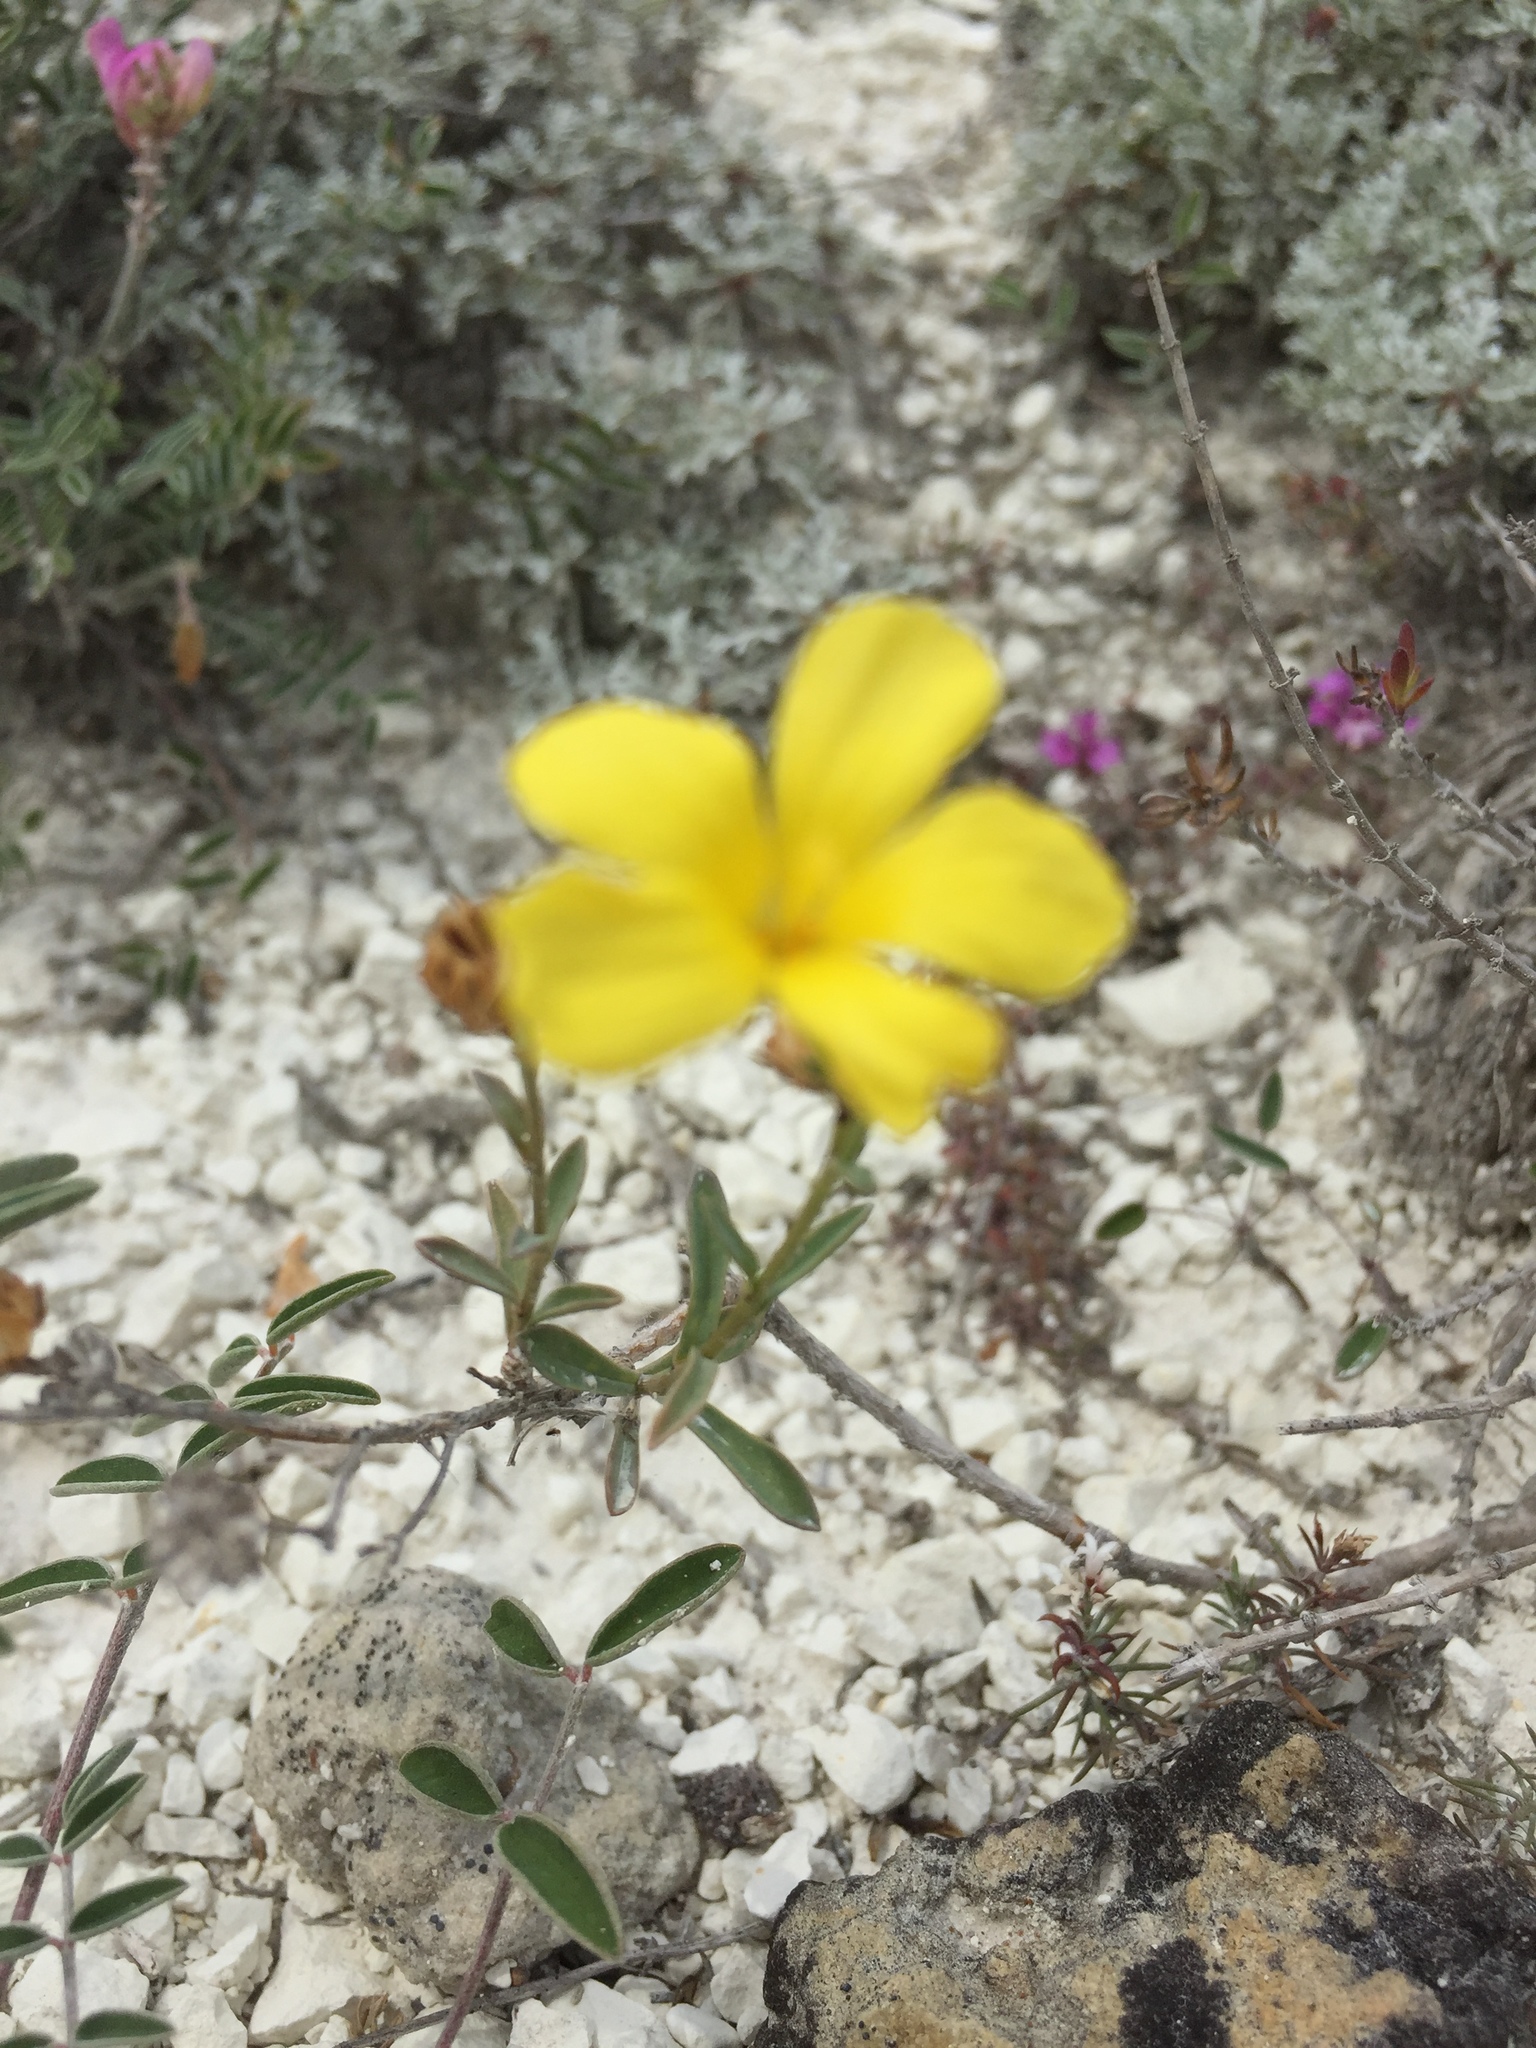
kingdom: Plantae
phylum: Tracheophyta
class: Magnoliopsida
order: Malpighiales
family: Linaceae
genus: Linum
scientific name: Linum ucranicum
